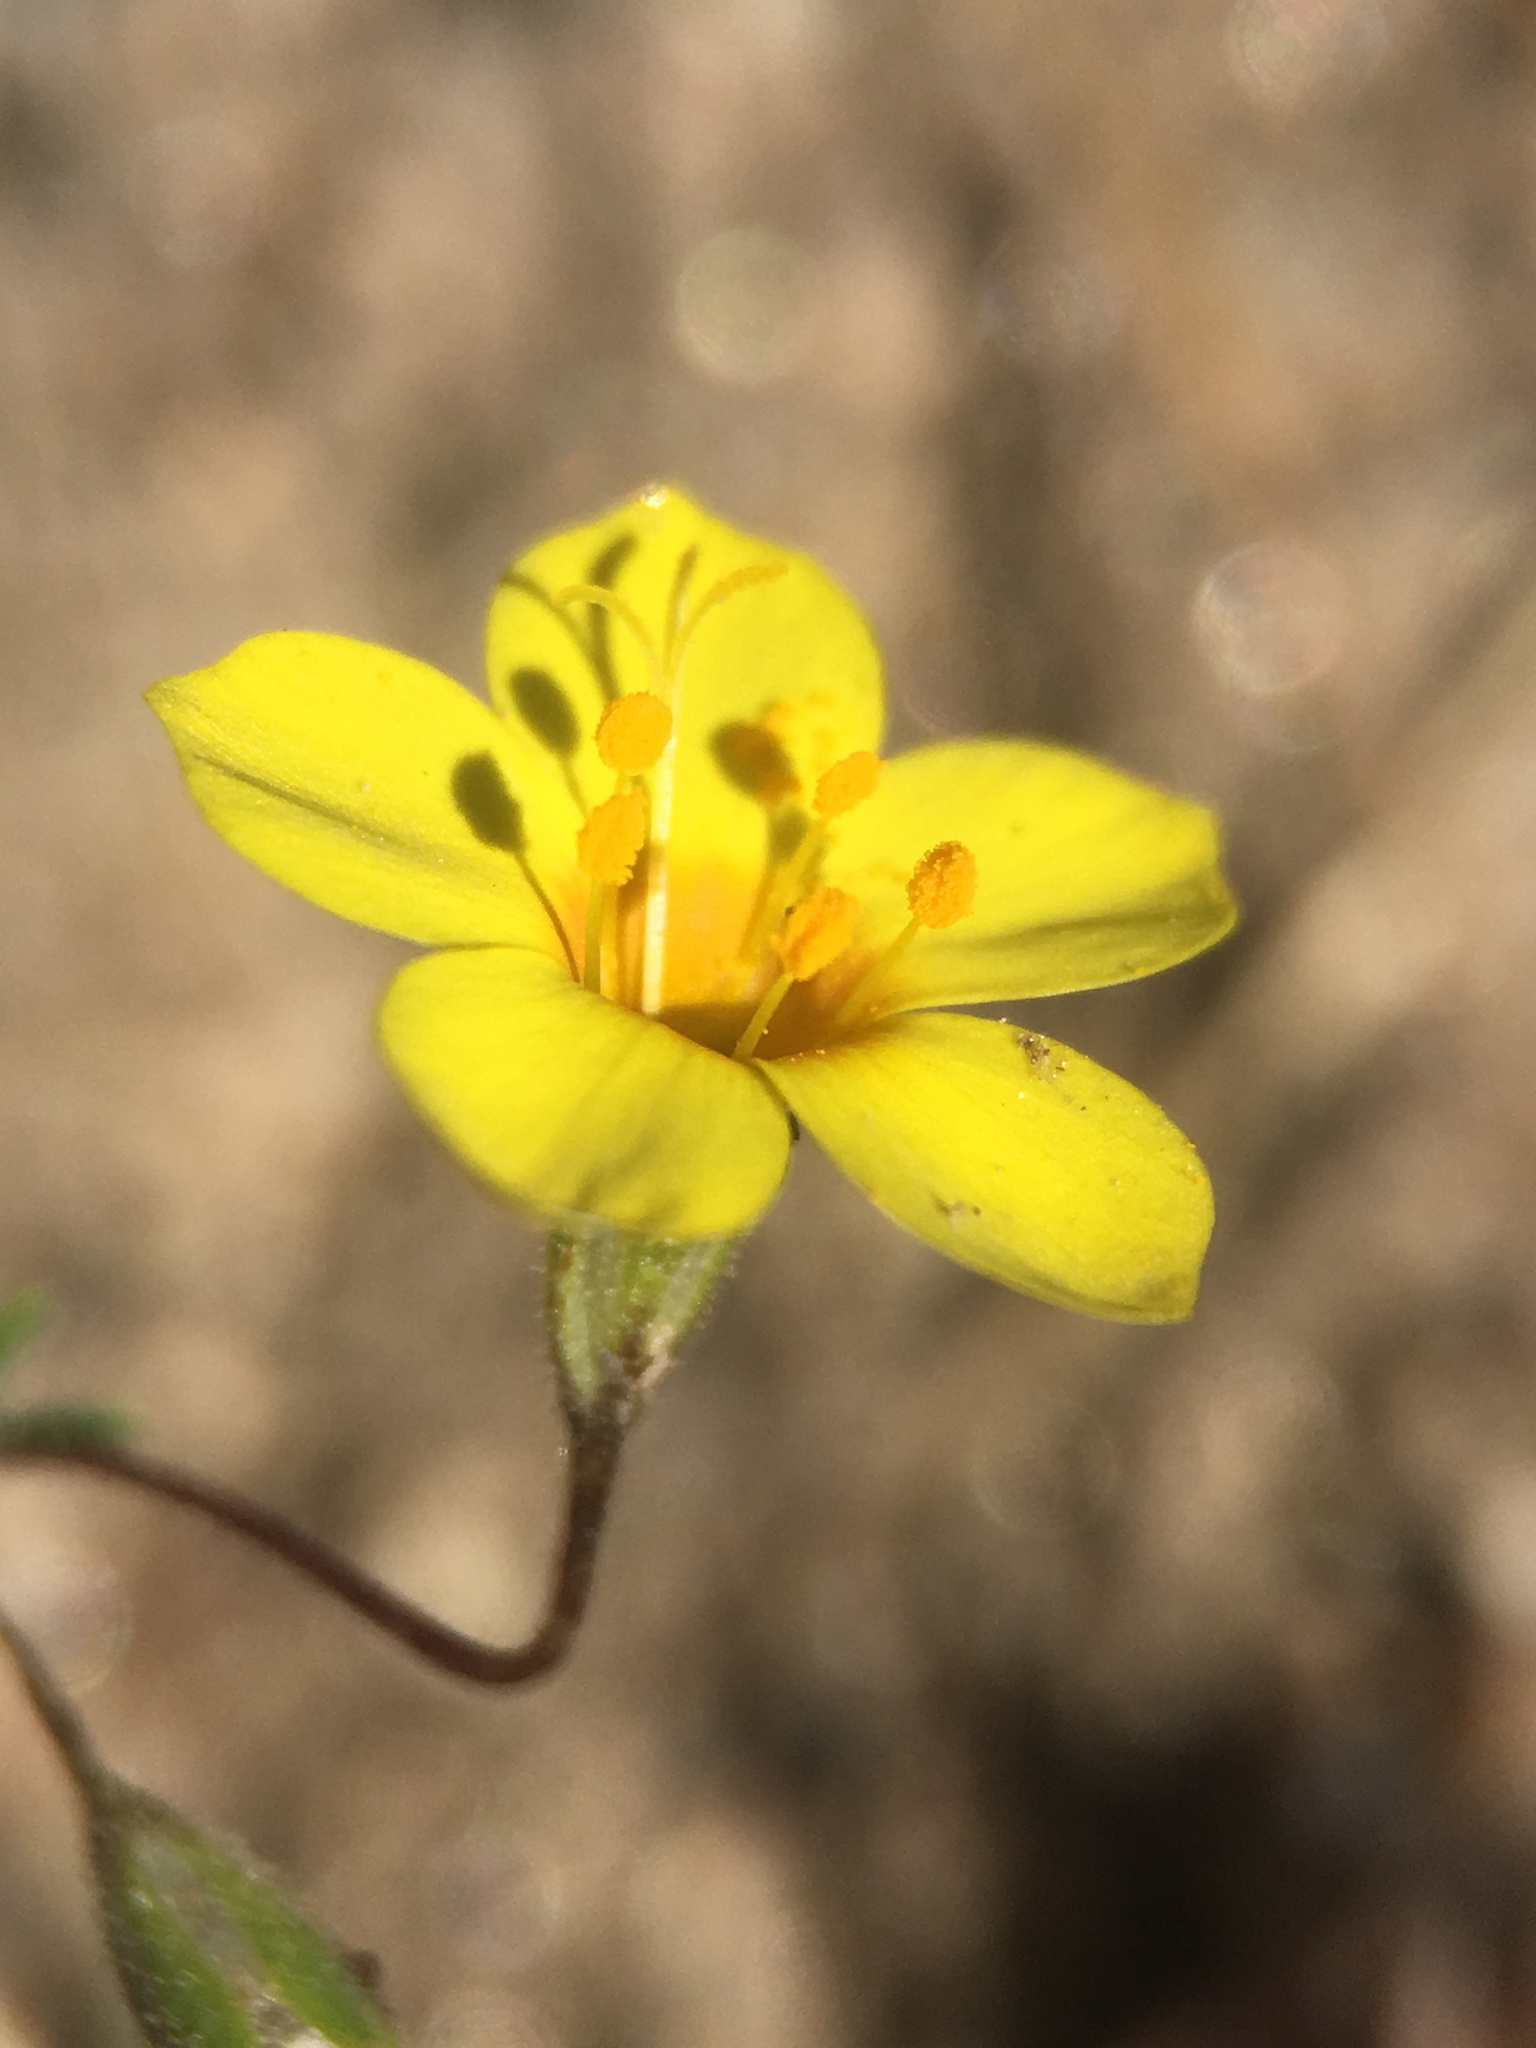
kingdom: Plantae
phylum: Tracheophyta
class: Magnoliopsida
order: Ericales
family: Polemoniaceae
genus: Leptosiphon
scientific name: Leptosiphon chrysanthus
